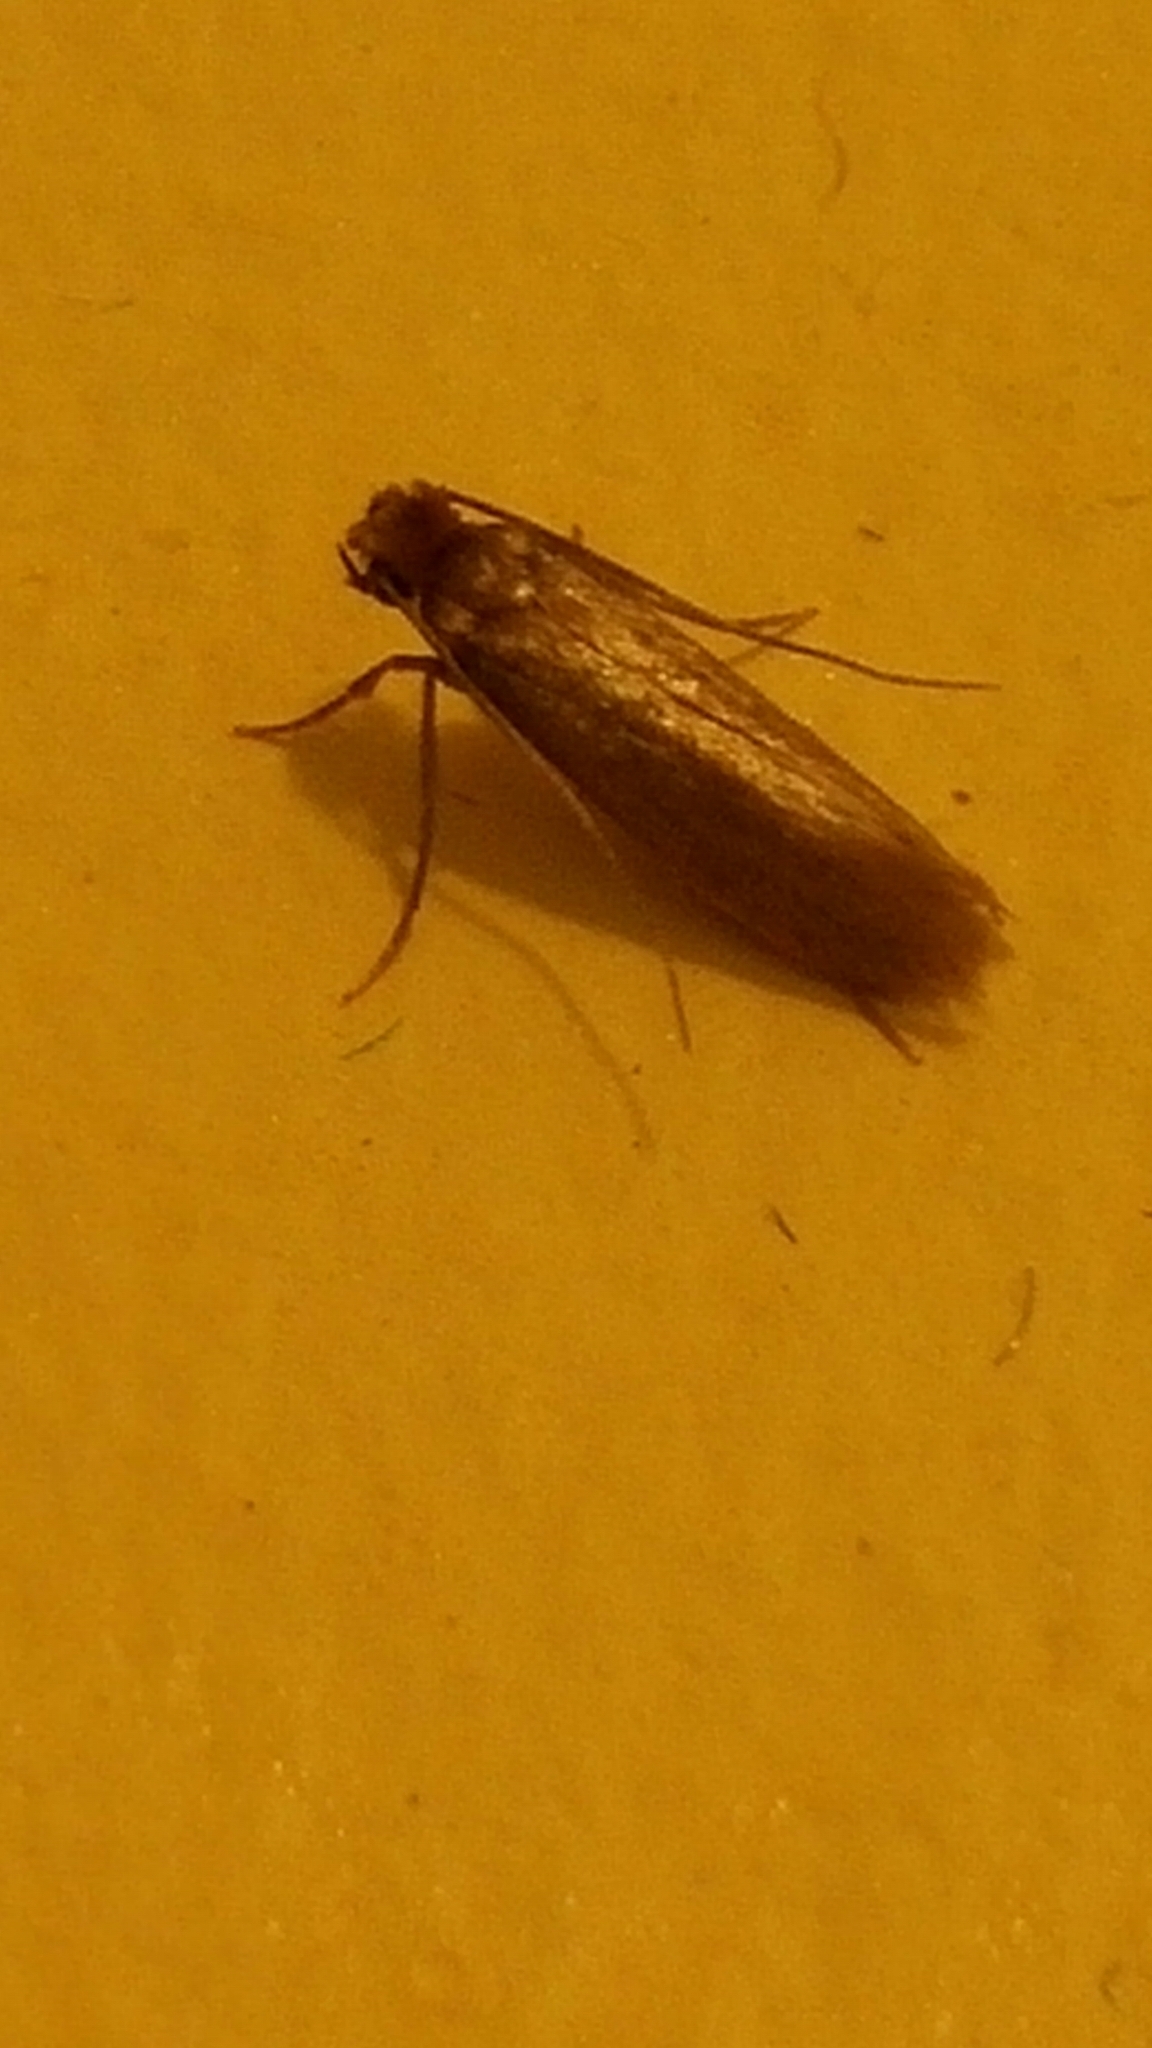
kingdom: Animalia
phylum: Arthropoda
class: Insecta
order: Lepidoptera
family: Tineidae
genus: Tinea
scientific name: Tinea pellionella
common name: Case-making clothes moth
